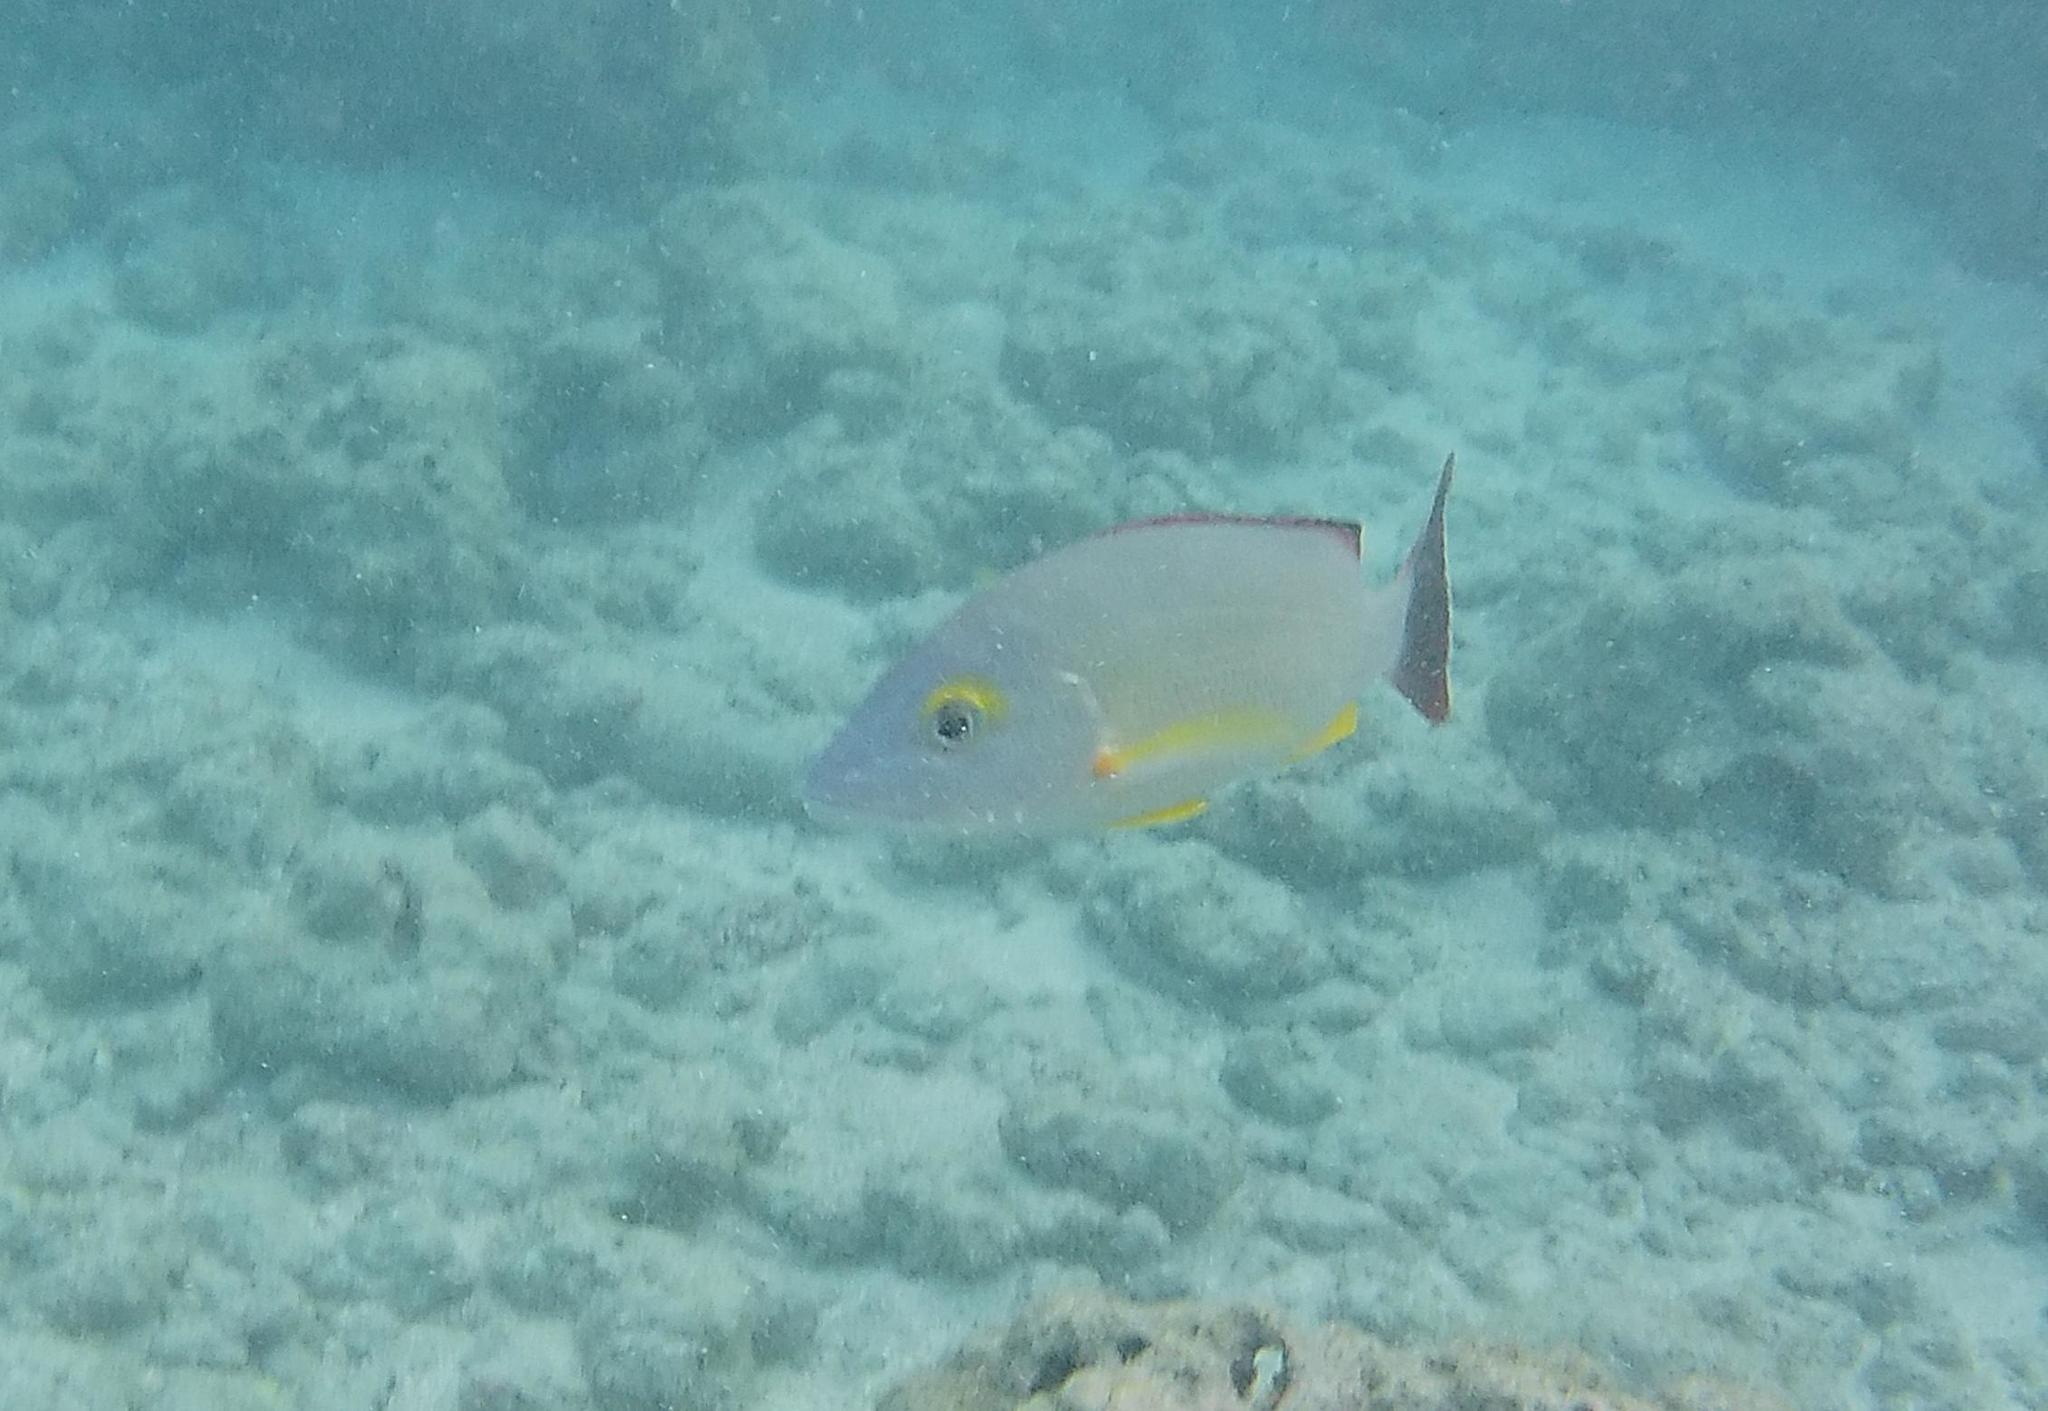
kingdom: Animalia
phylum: Chordata
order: Perciformes
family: Lutjanidae
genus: Lutjanus
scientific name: Lutjanus fulvus
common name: Blacktail snapper
